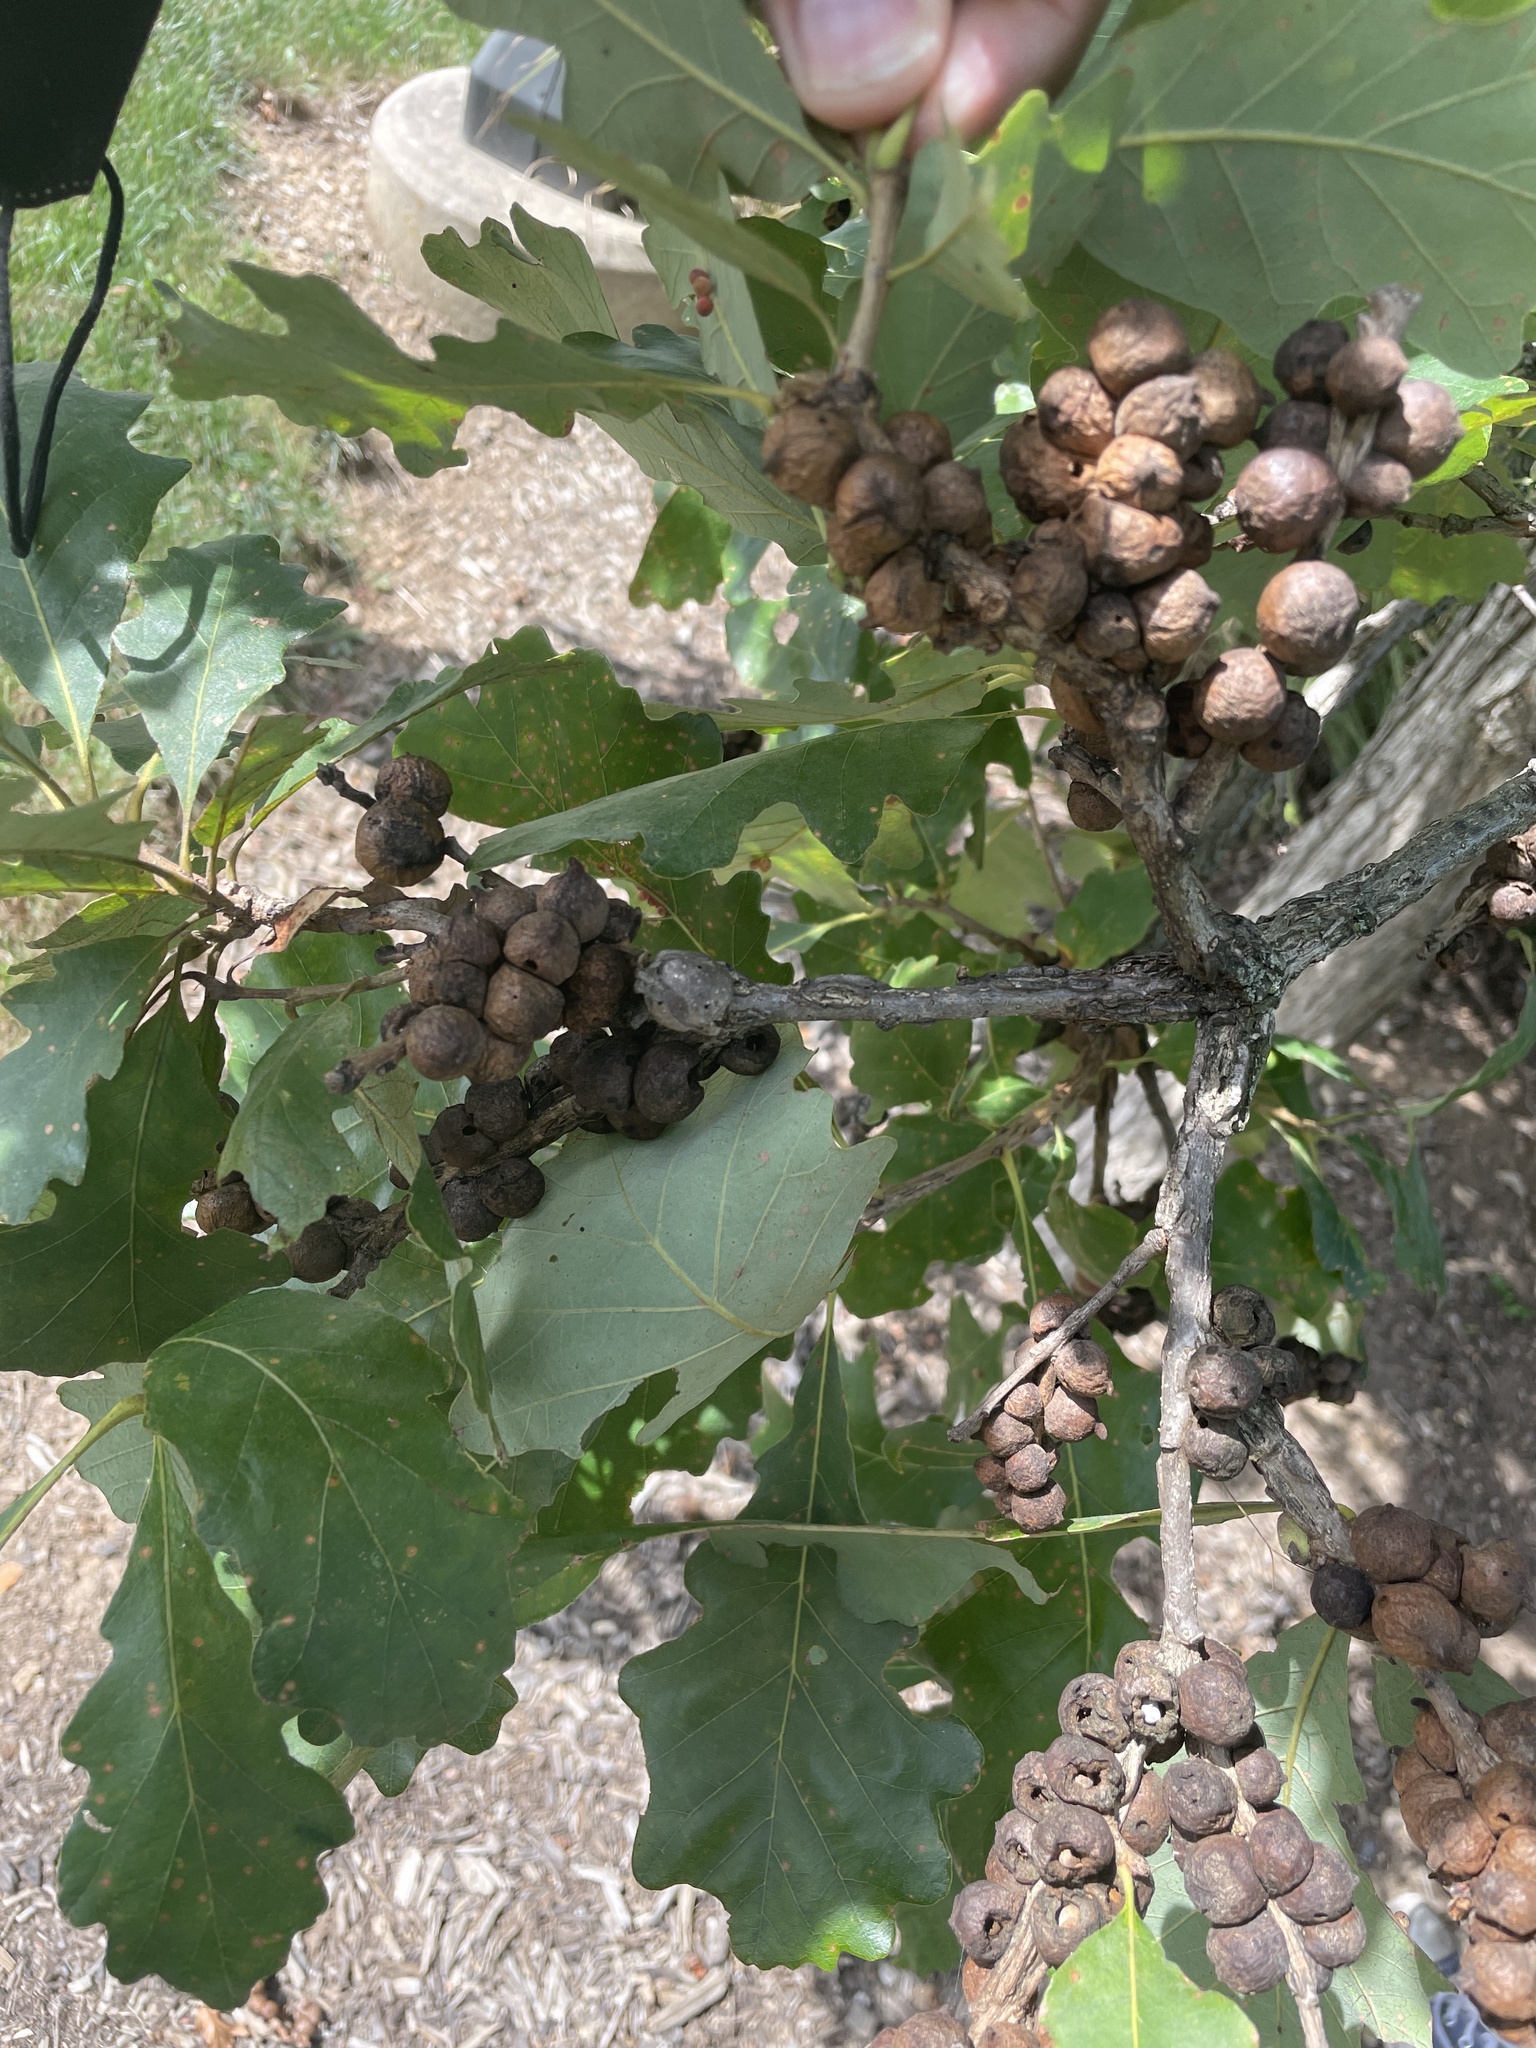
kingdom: Animalia
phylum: Arthropoda
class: Insecta
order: Hymenoptera
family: Cynipidae
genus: Disholcaspis
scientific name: Disholcaspis
